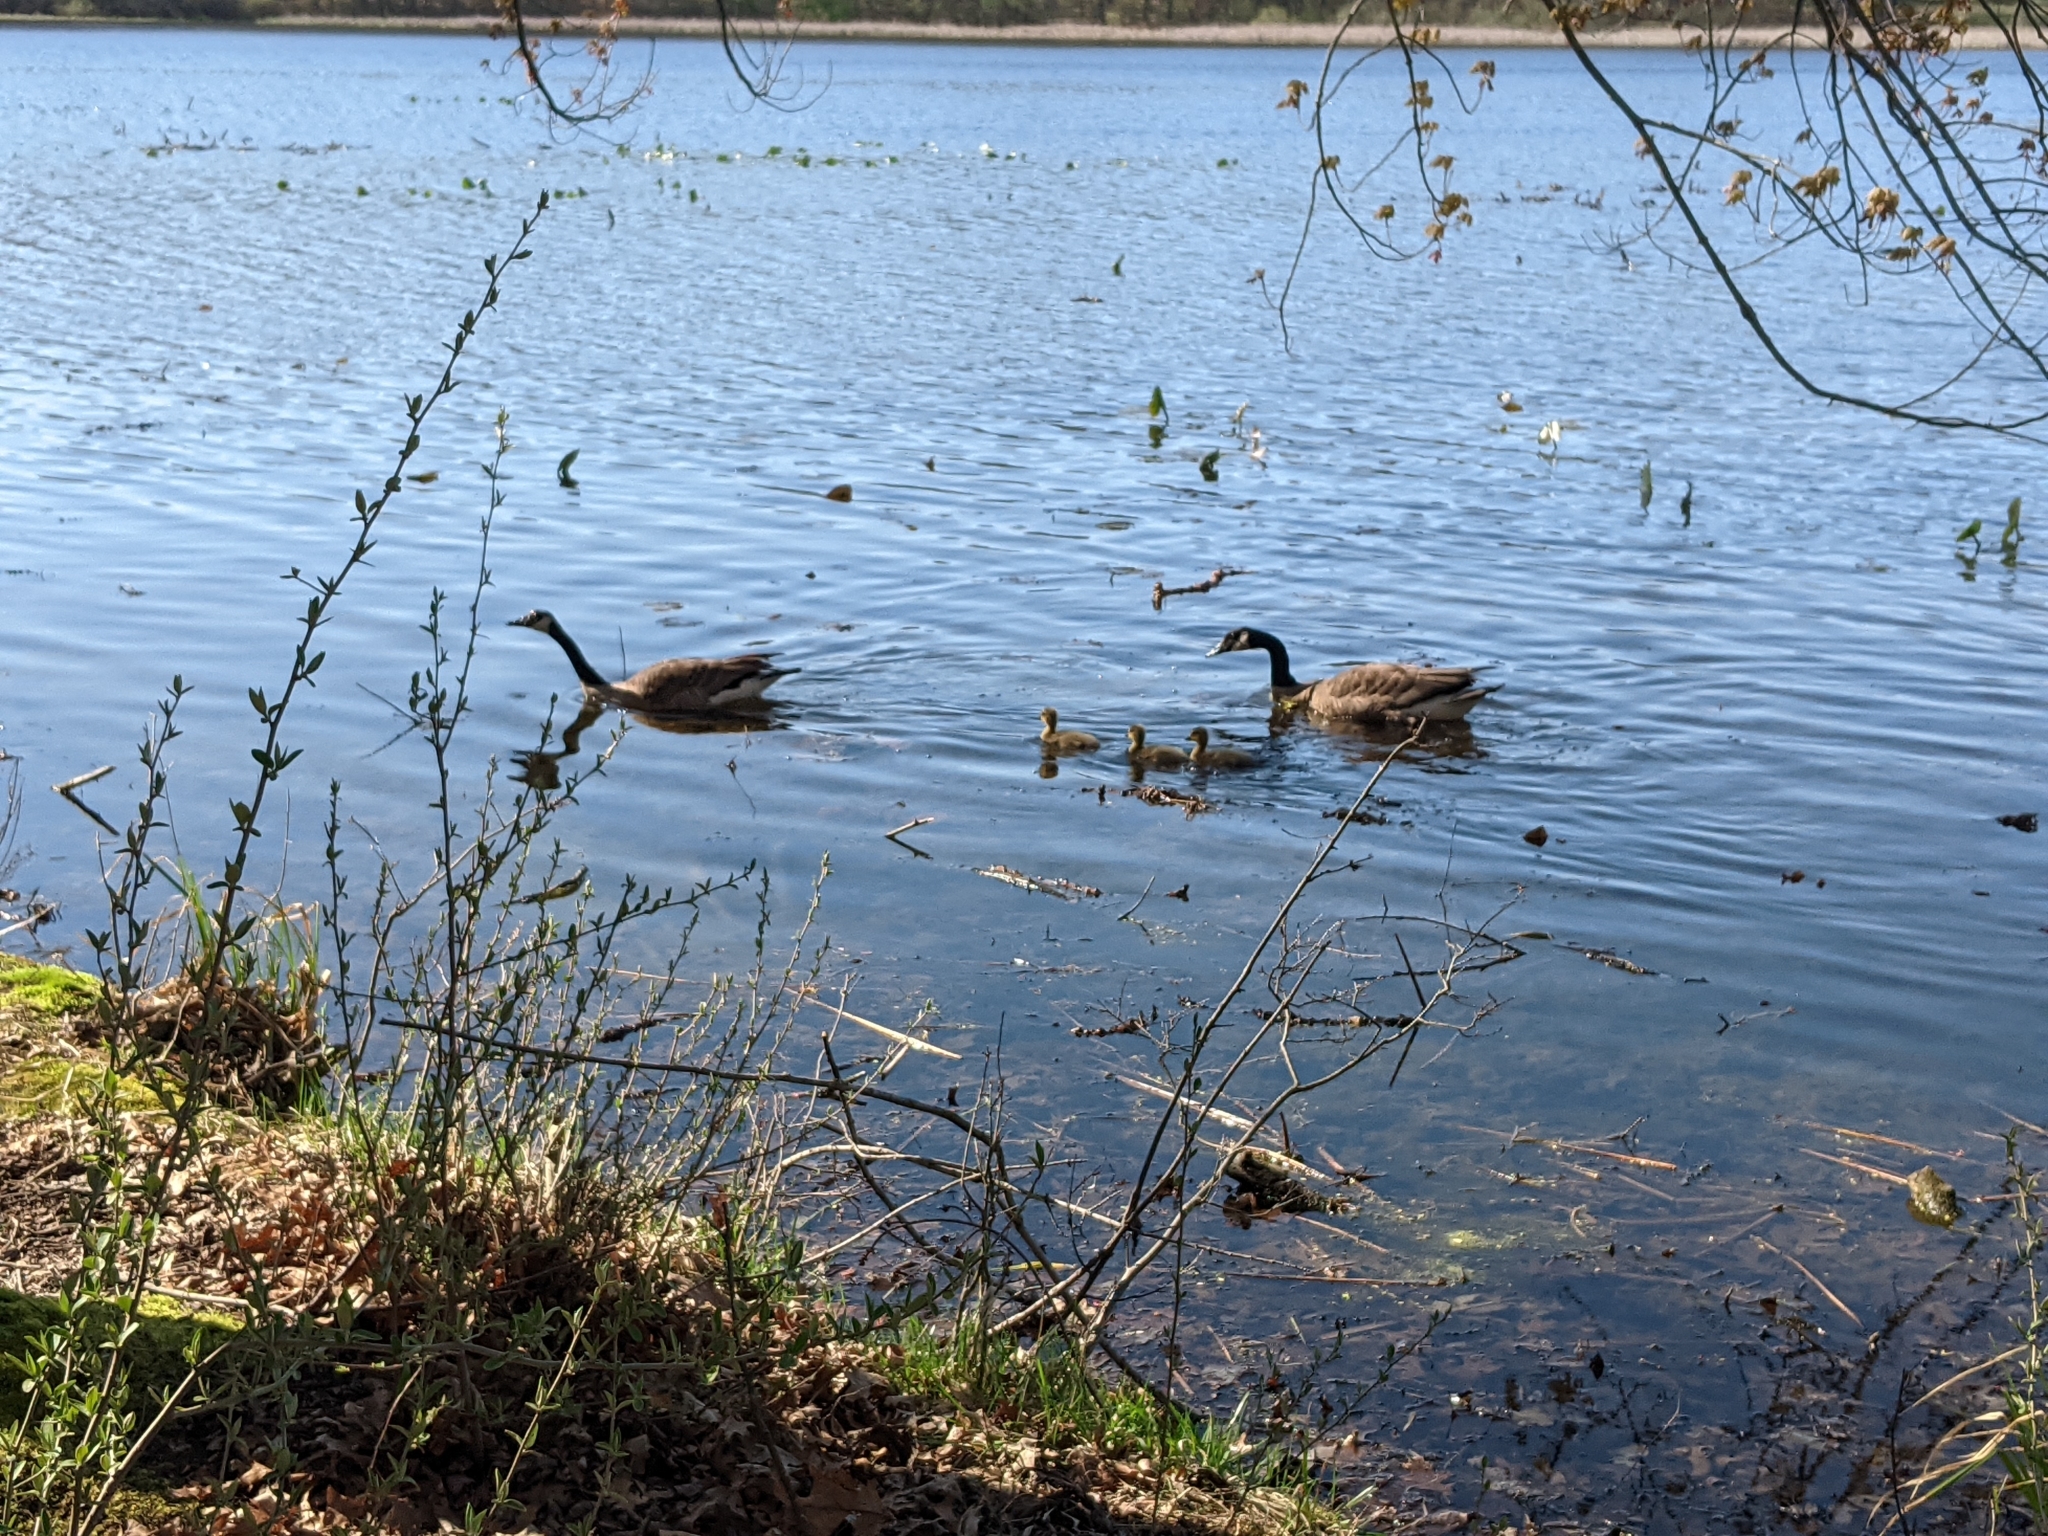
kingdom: Animalia
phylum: Chordata
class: Aves
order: Anseriformes
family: Anatidae
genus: Branta
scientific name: Branta canadensis
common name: Canada goose
